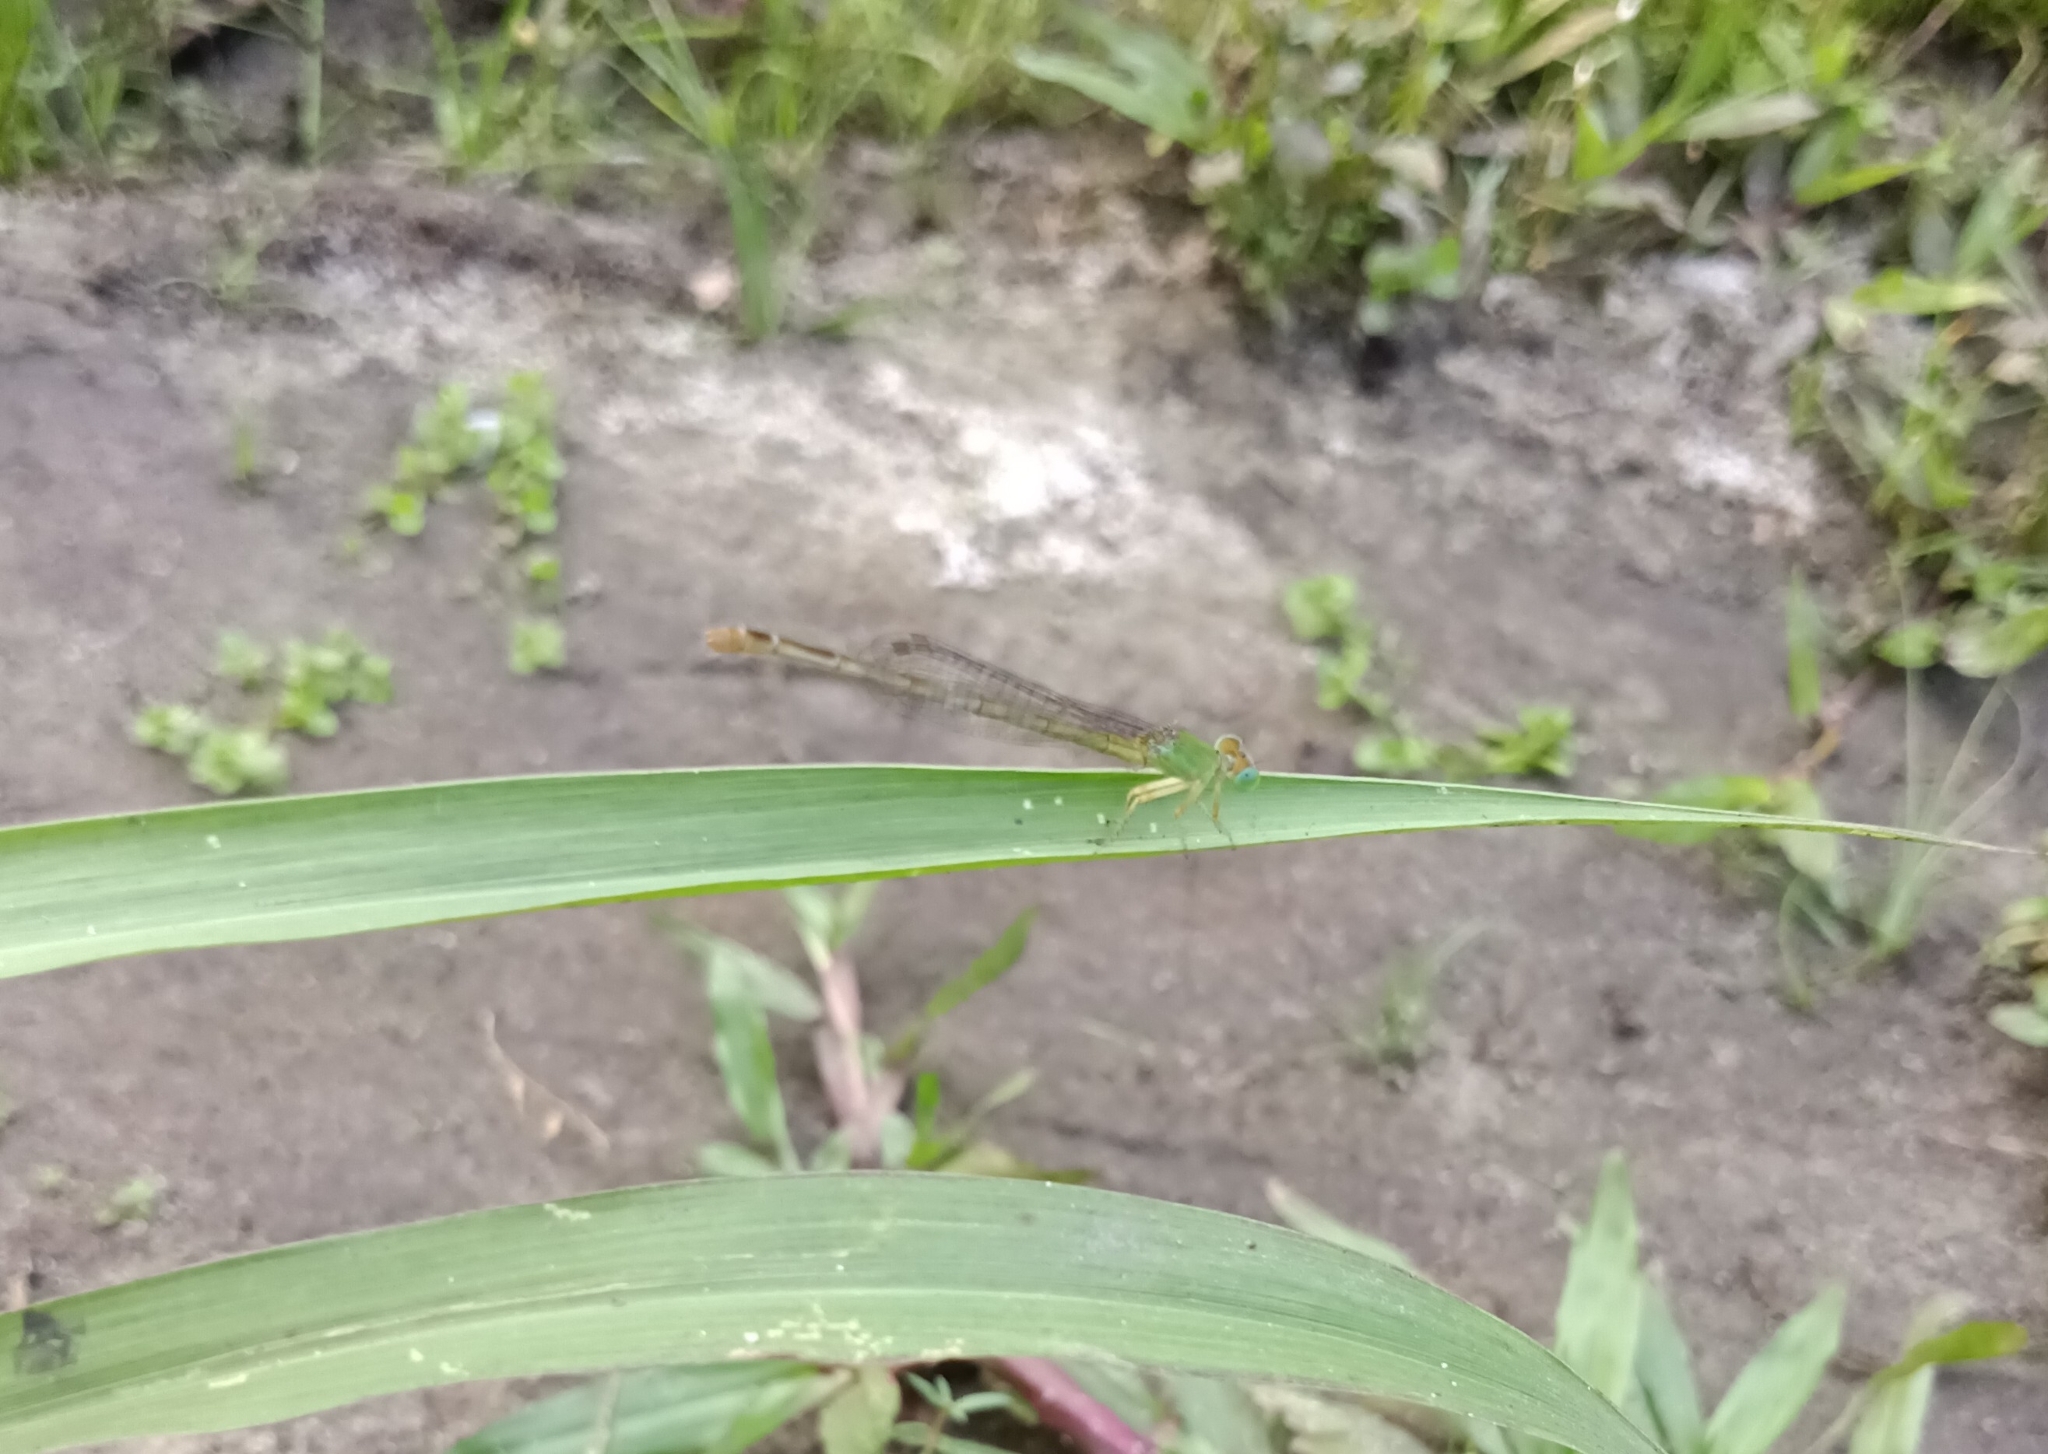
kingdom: Animalia
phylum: Arthropoda
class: Insecta
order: Odonata
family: Coenagrionidae
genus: Ceriagrion
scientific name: Ceriagrion coromandelianum
